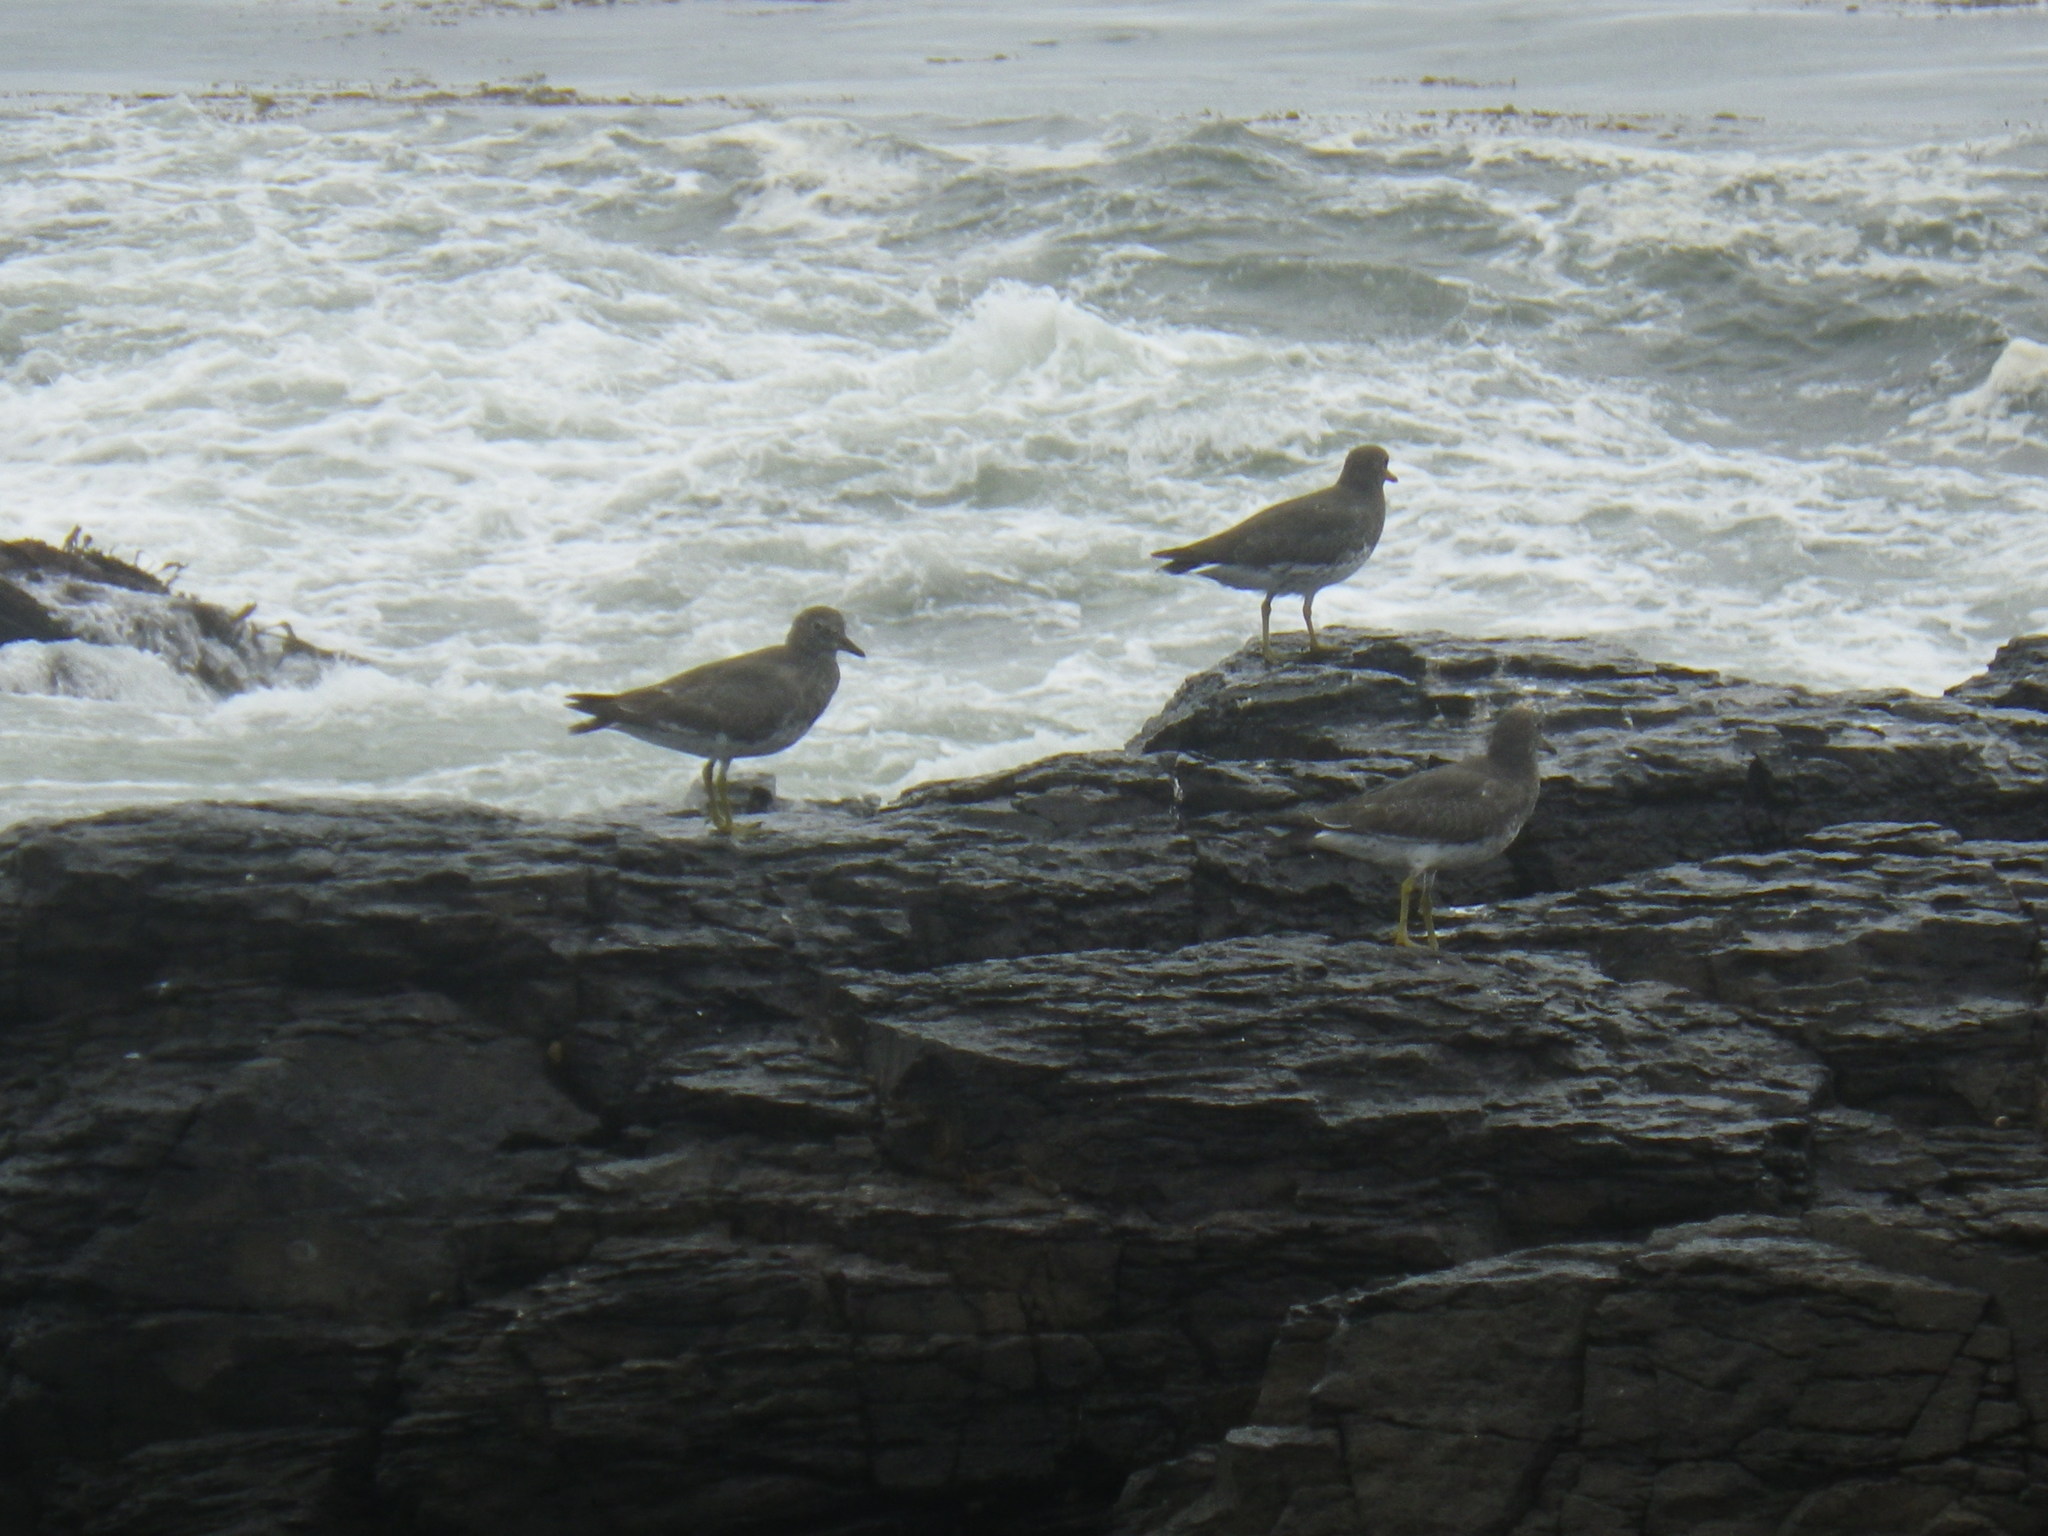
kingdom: Animalia
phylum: Chordata
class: Aves
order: Charadriiformes
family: Scolopacidae
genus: Calidris
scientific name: Calidris virgata
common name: Surfbird
